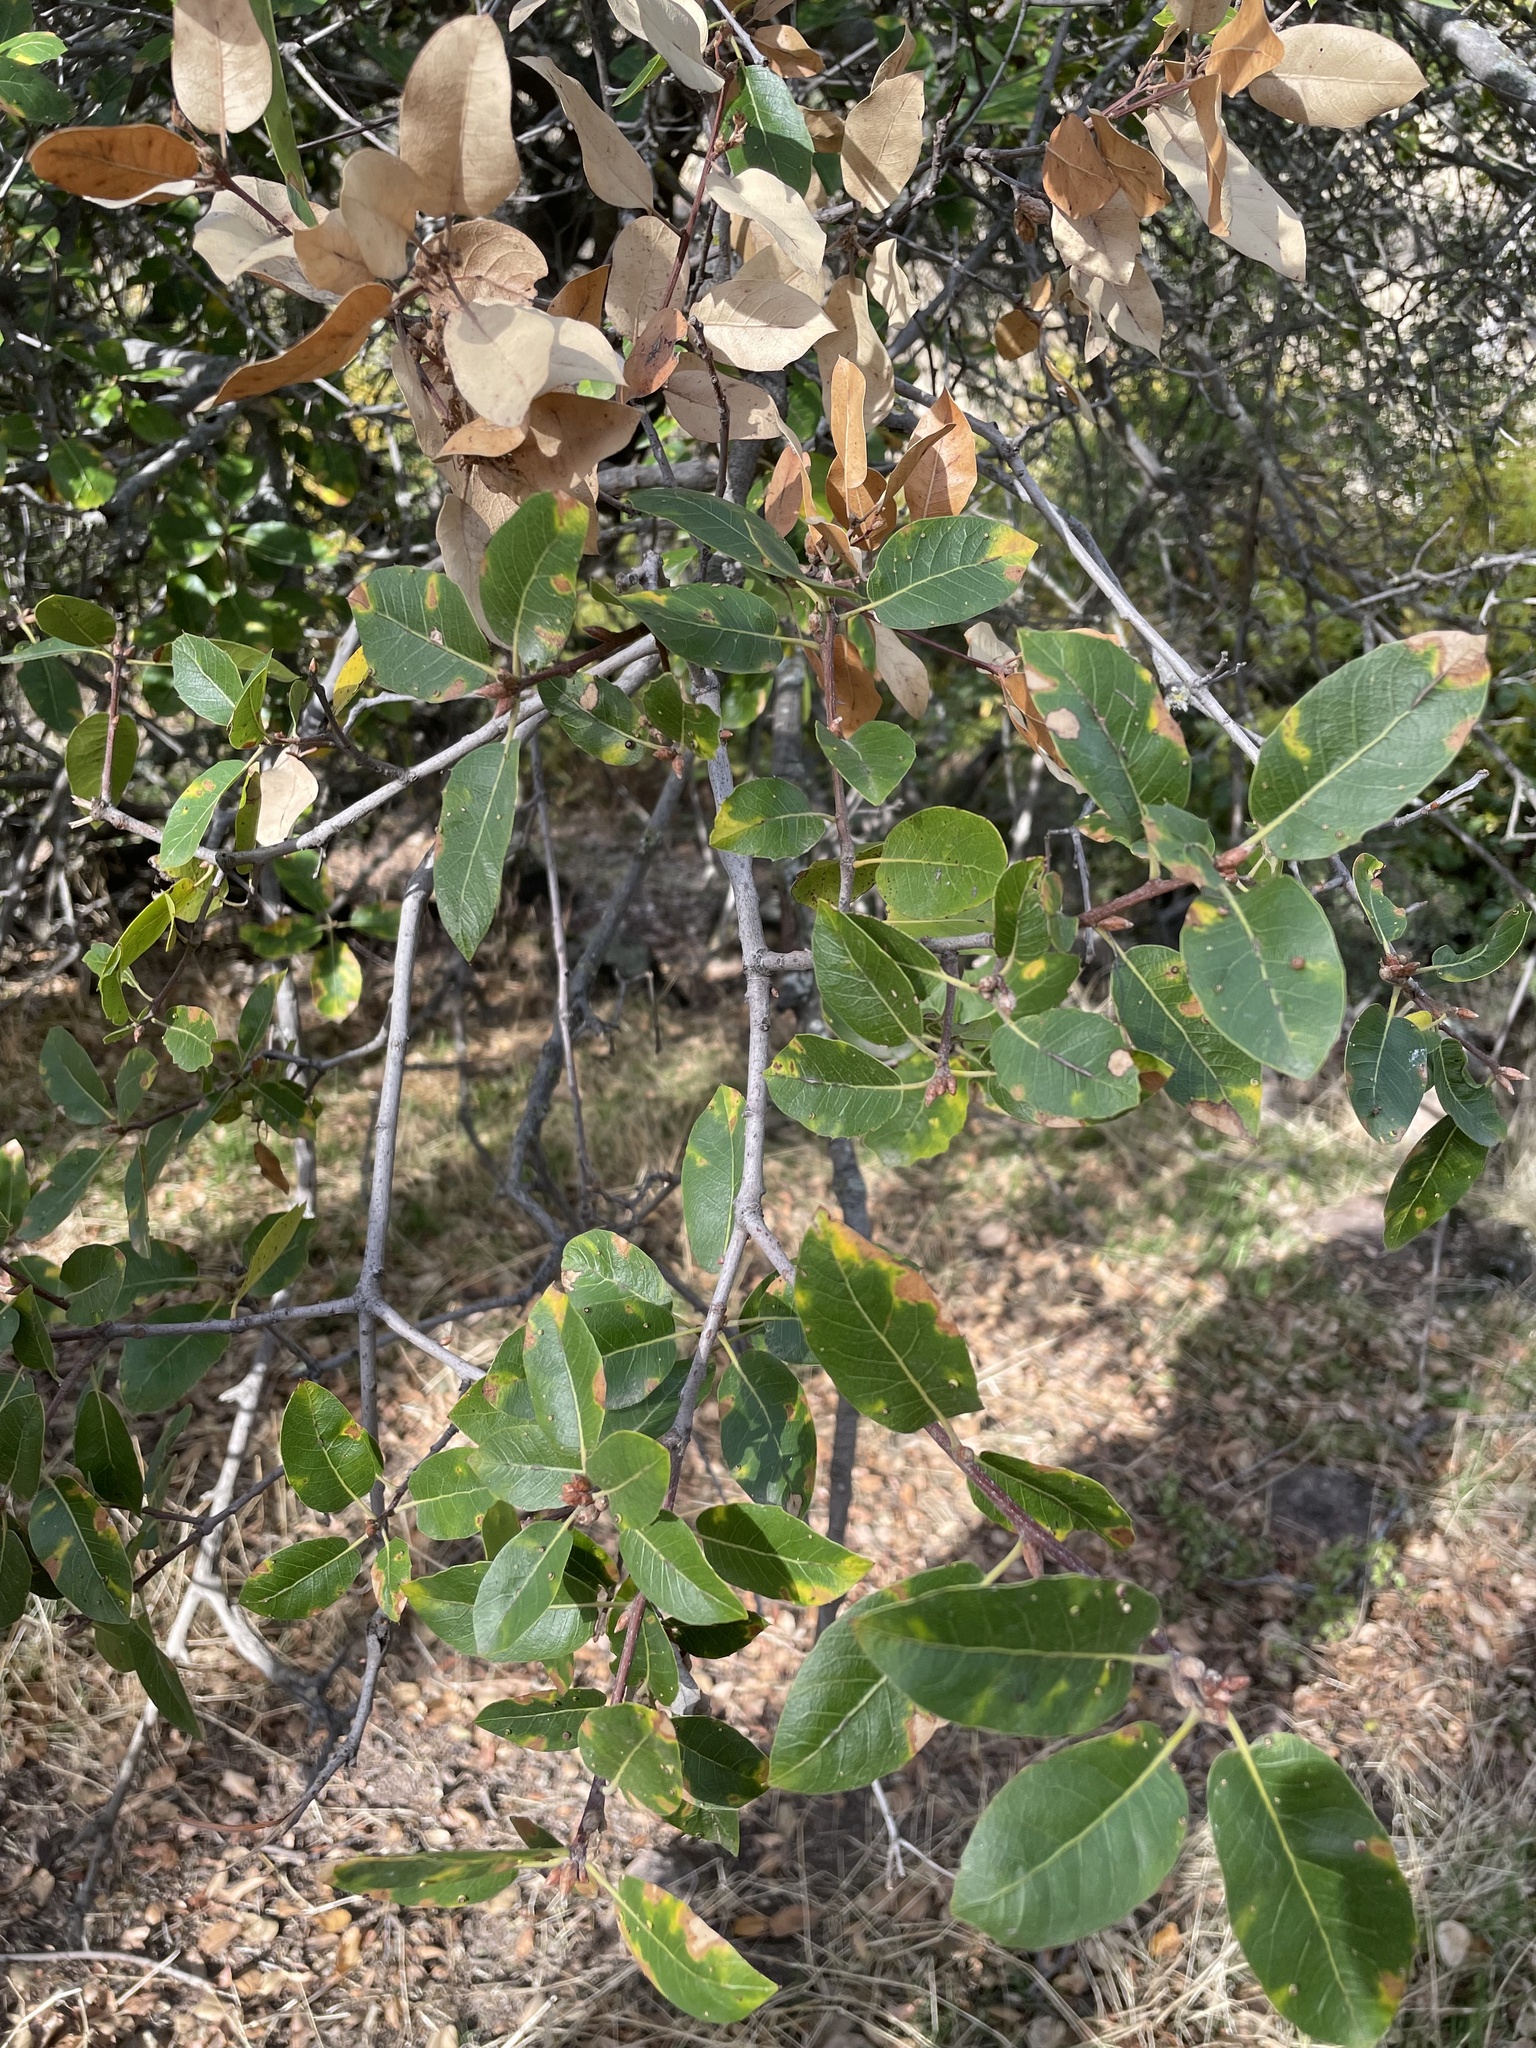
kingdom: Plantae
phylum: Tracheophyta
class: Magnoliopsida
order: Fagales
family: Fagaceae
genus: Quercus
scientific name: Quercus wislizeni
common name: Interior live oak
